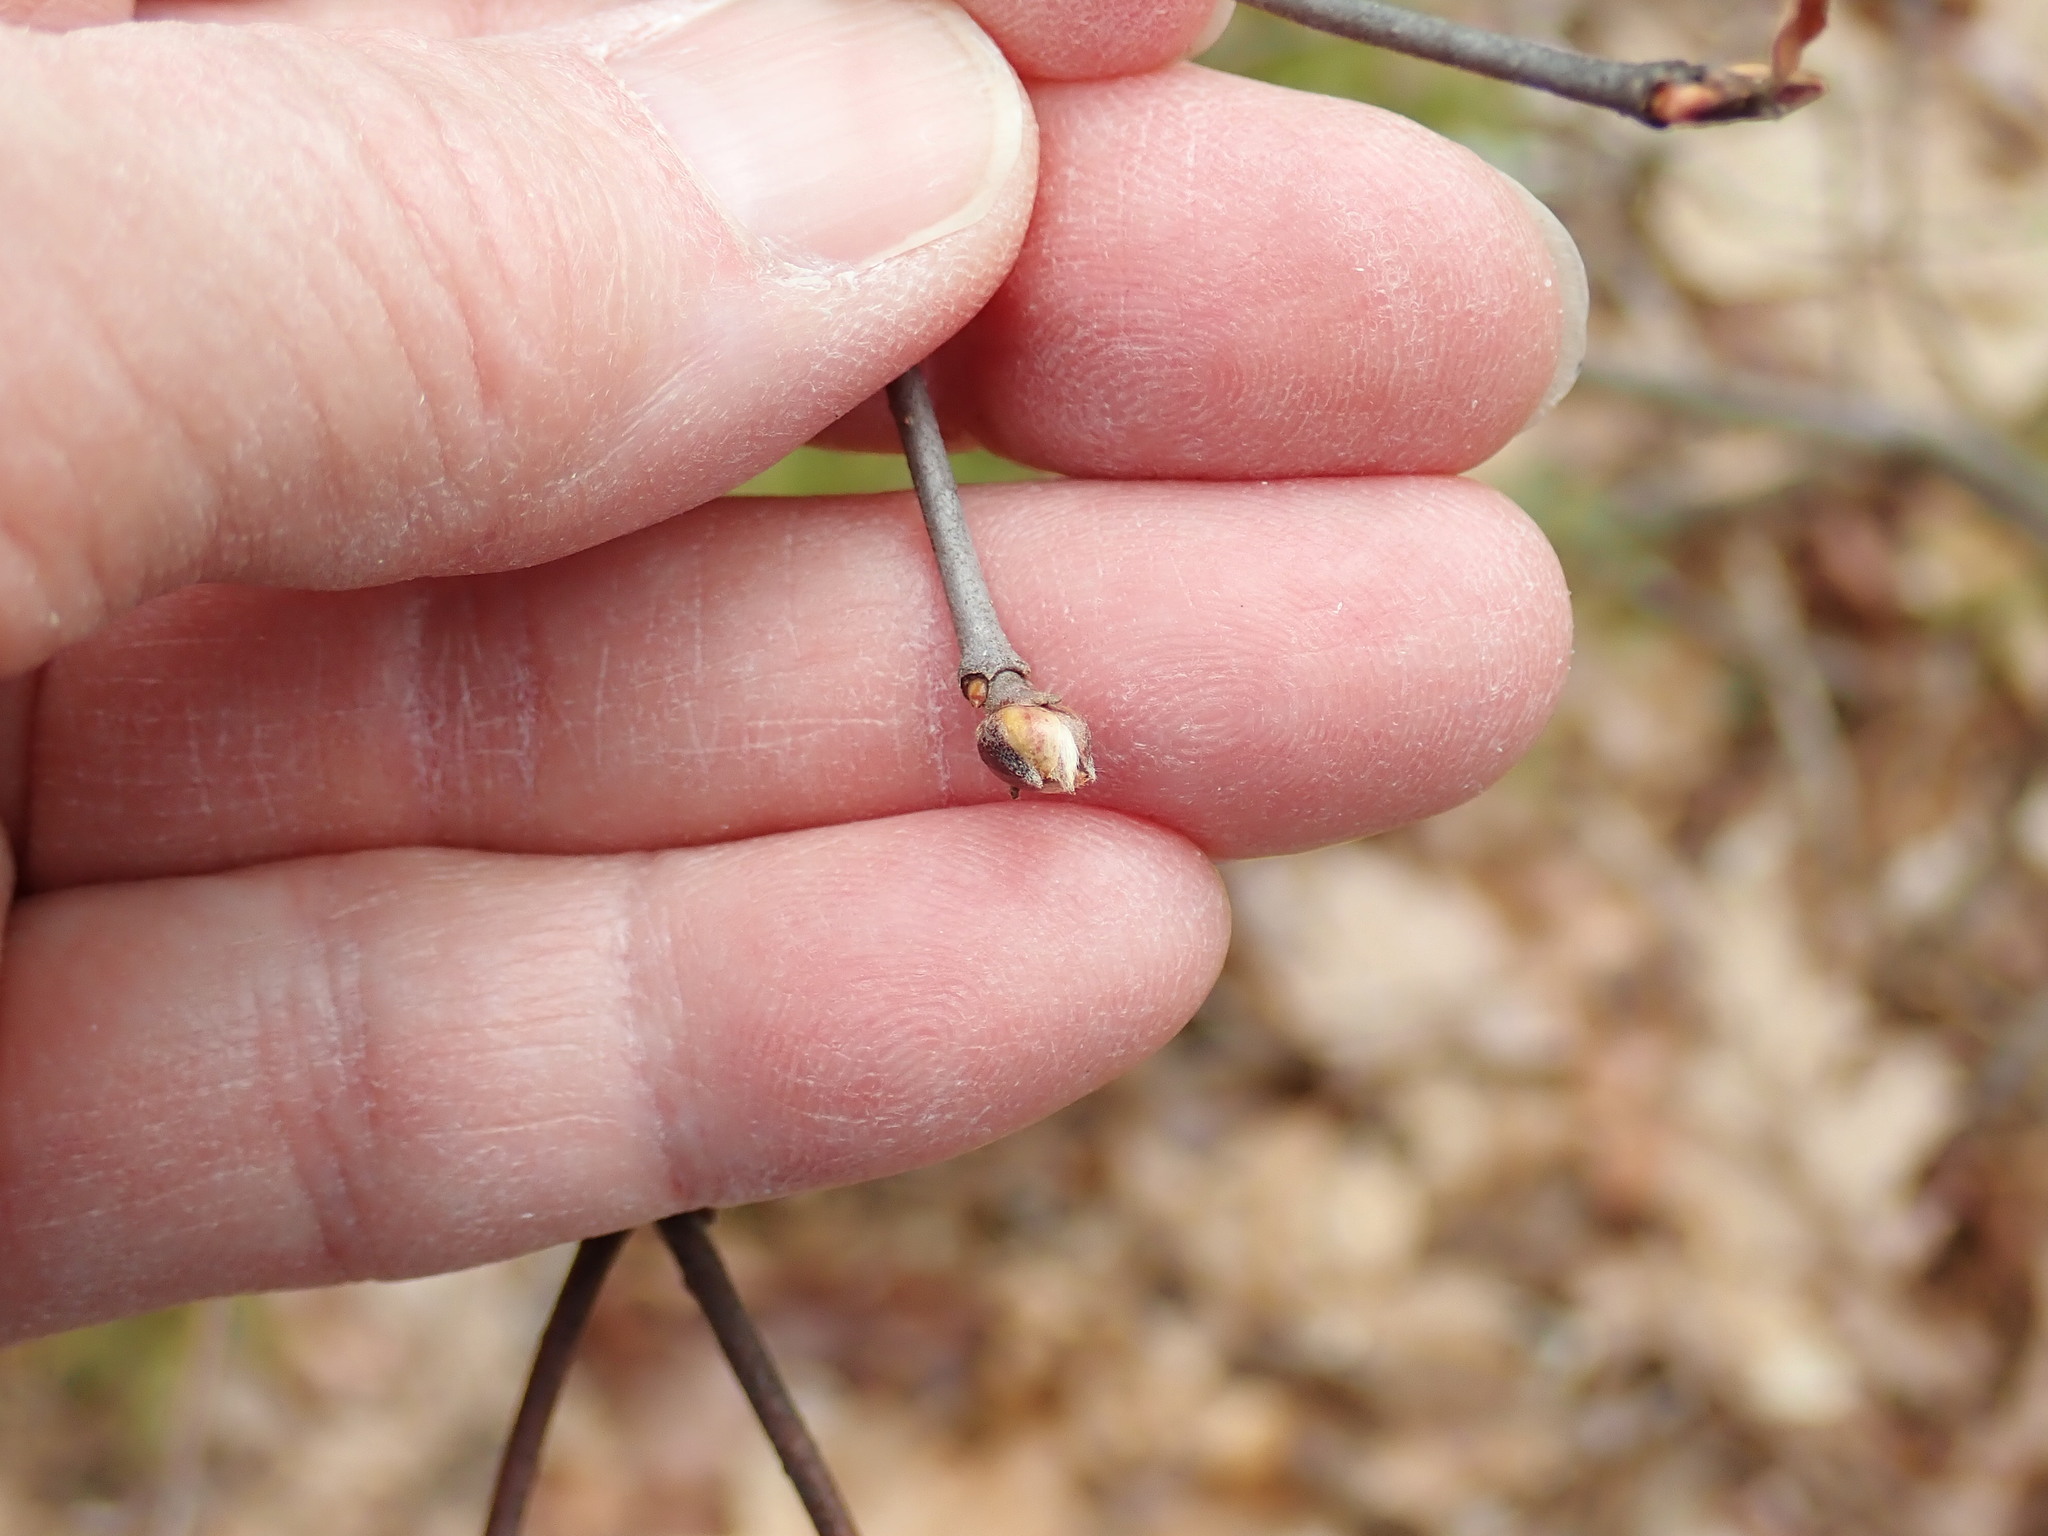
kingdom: Plantae
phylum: Tracheophyta
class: Magnoliopsida
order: Dipsacales
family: Viburnaceae
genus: Viburnum
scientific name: Viburnum acerifolium
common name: Dockmackie
